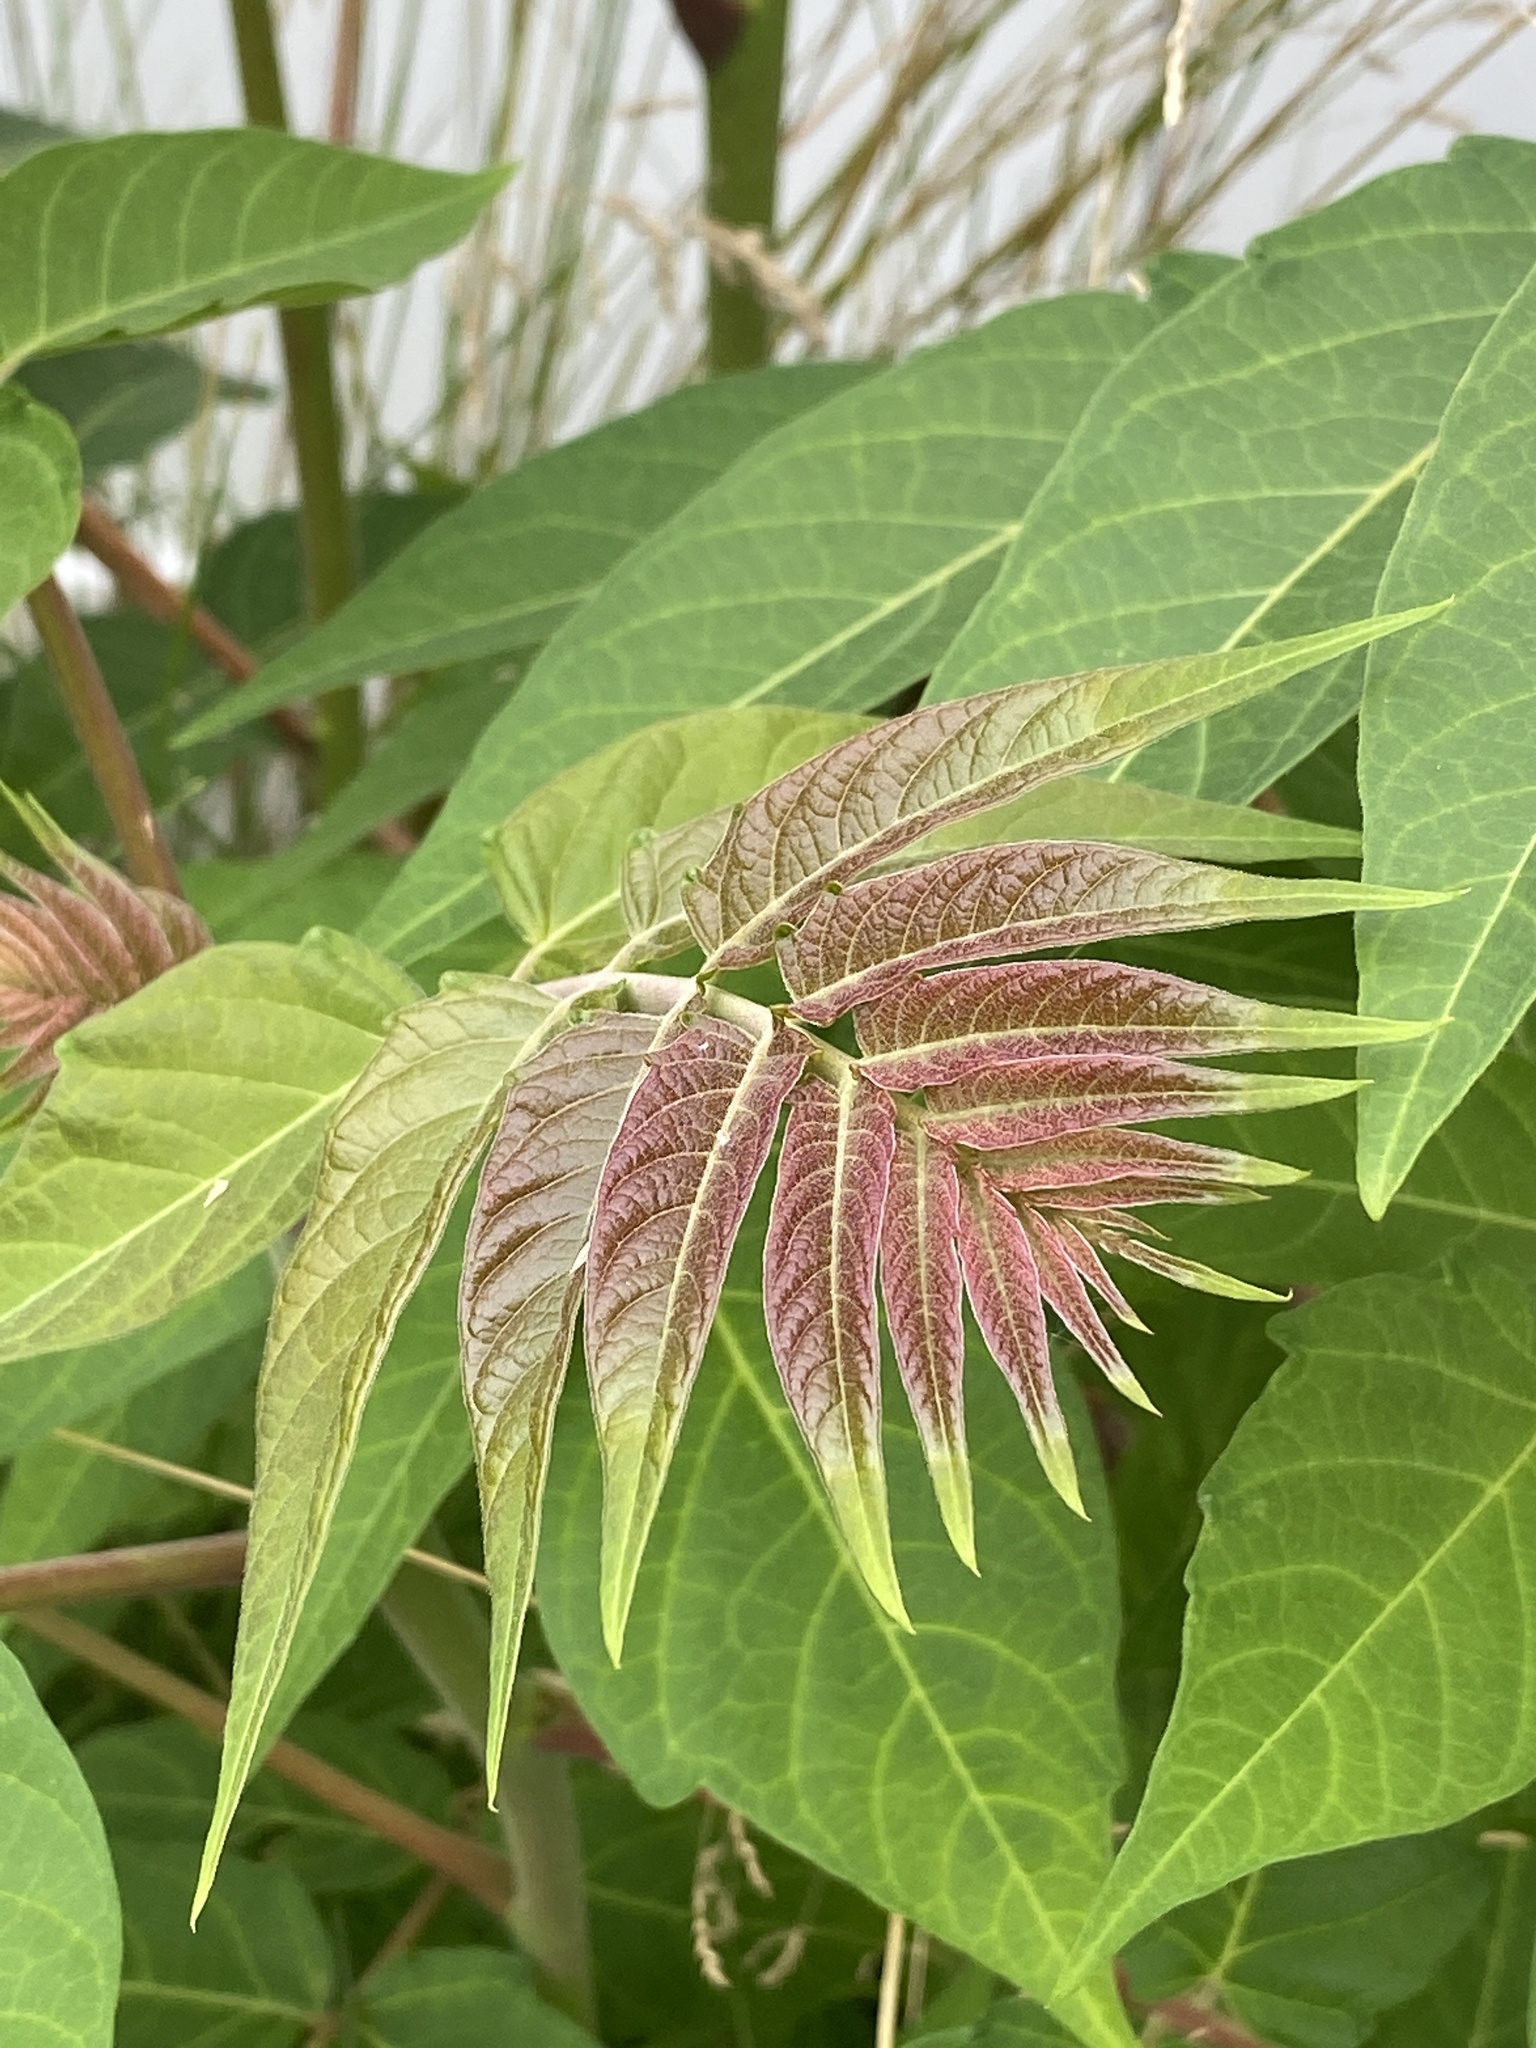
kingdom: Plantae
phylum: Tracheophyta
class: Magnoliopsida
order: Sapindales
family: Simaroubaceae
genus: Ailanthus
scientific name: Ailanthus altissima
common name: Tree-of-heaven
